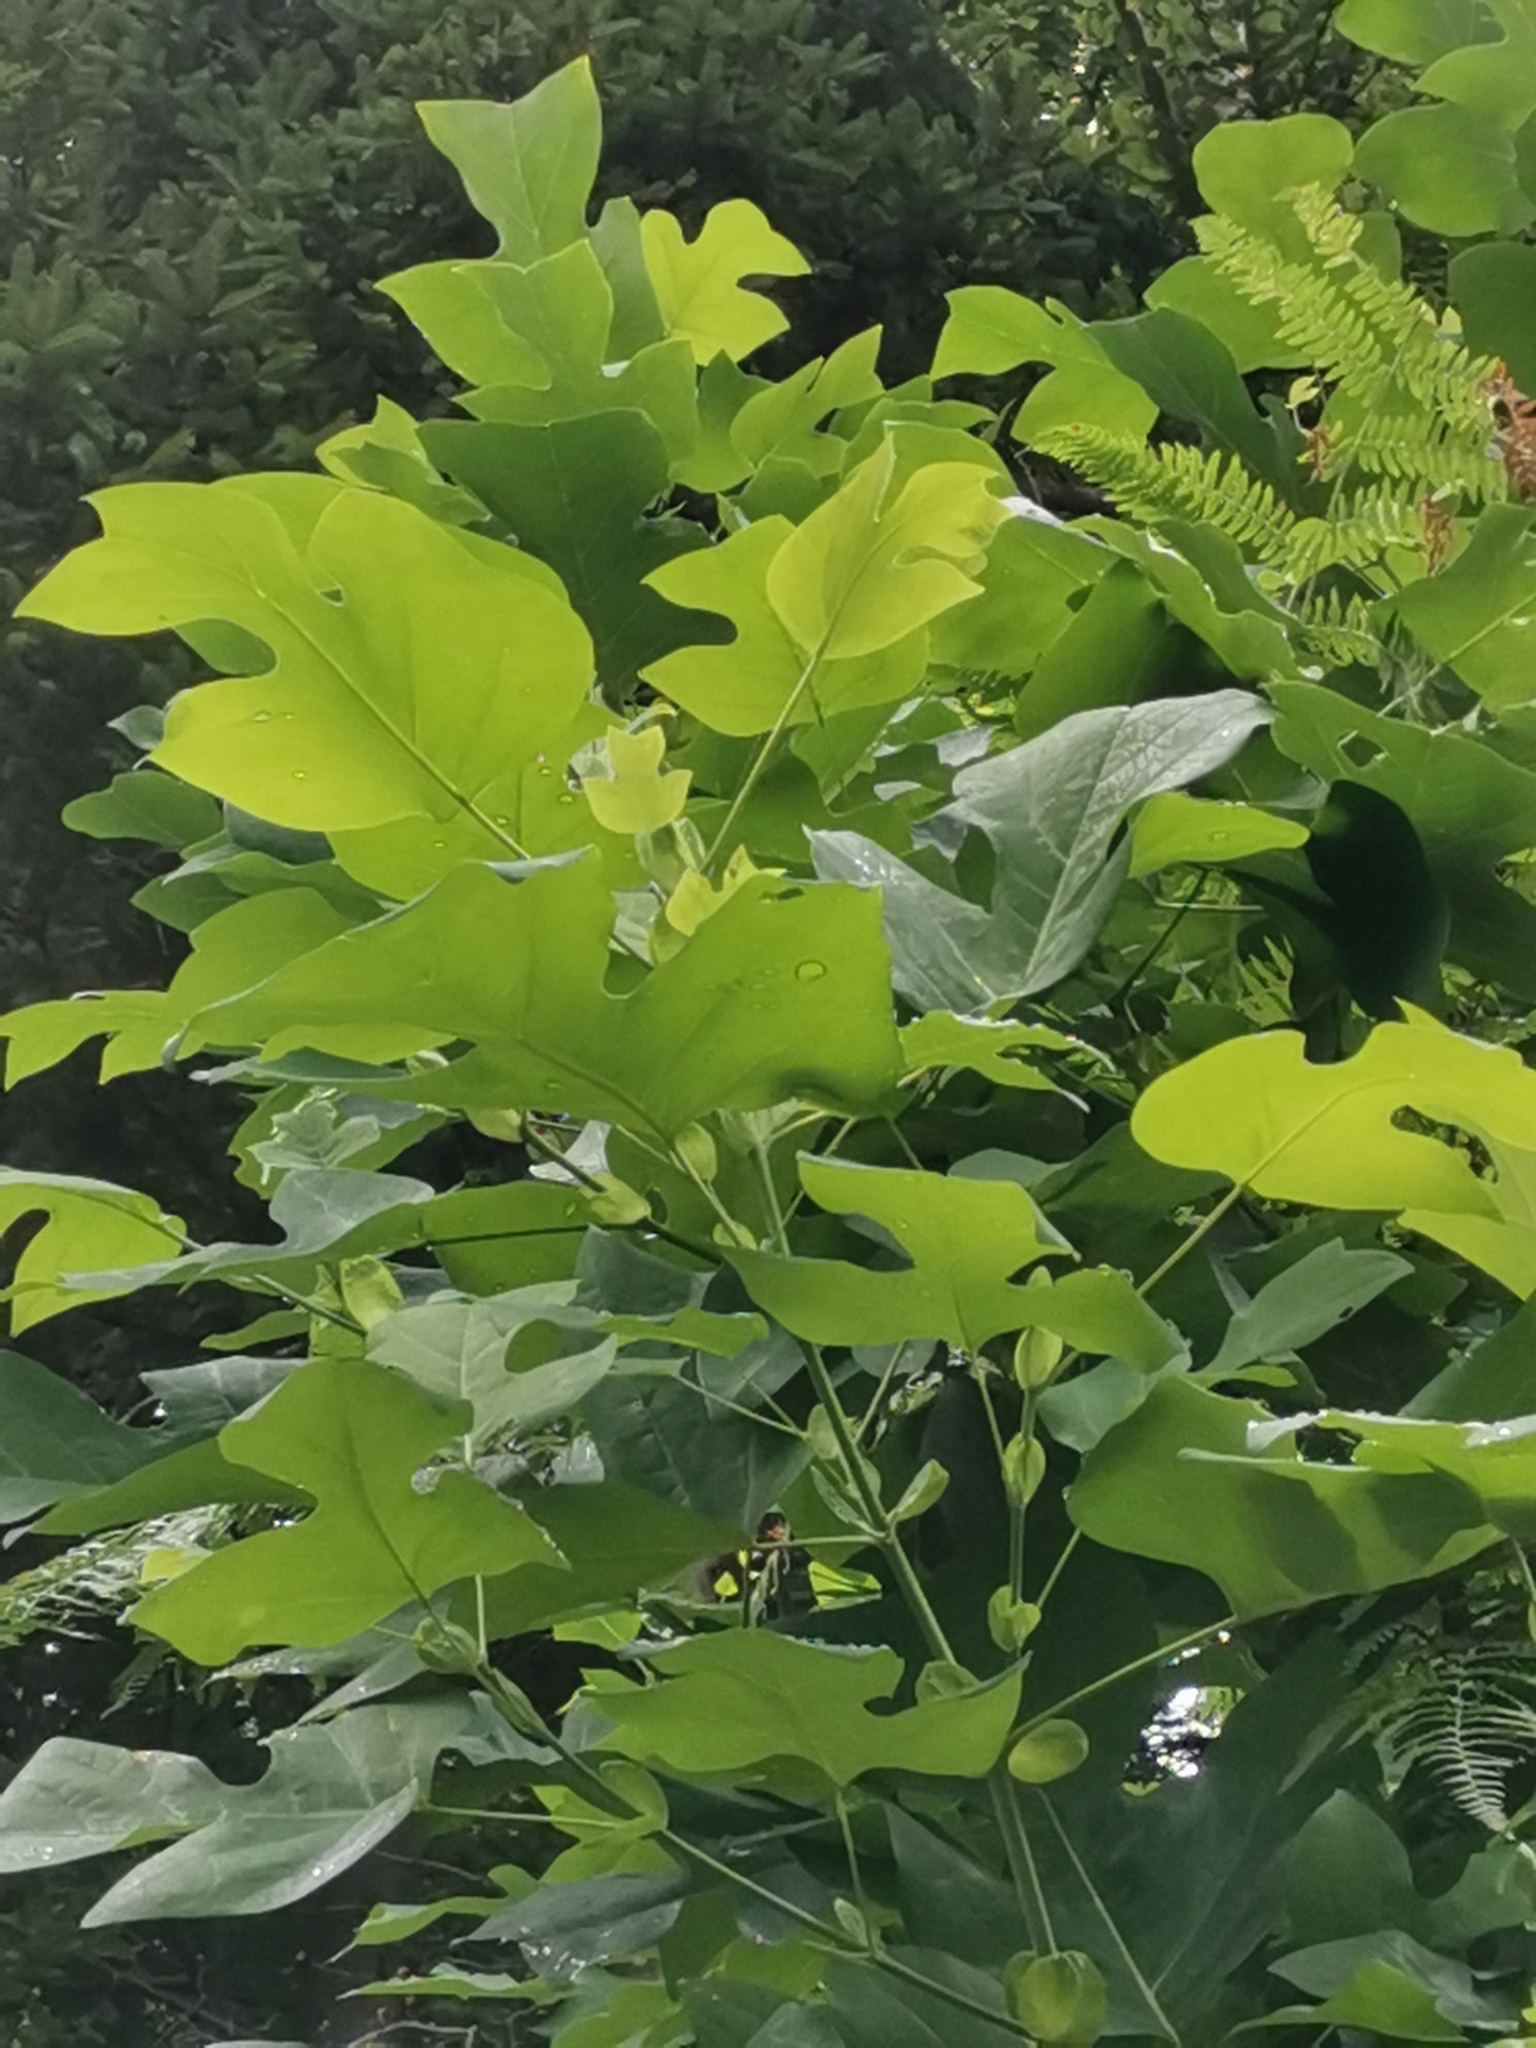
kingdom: Plantae
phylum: Tracheophyta
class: Magnoliopsida
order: Magnoliales
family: Magnoliaceae
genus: Liriodendron
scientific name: Liriodendron tulipifera
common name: Tulip tree
